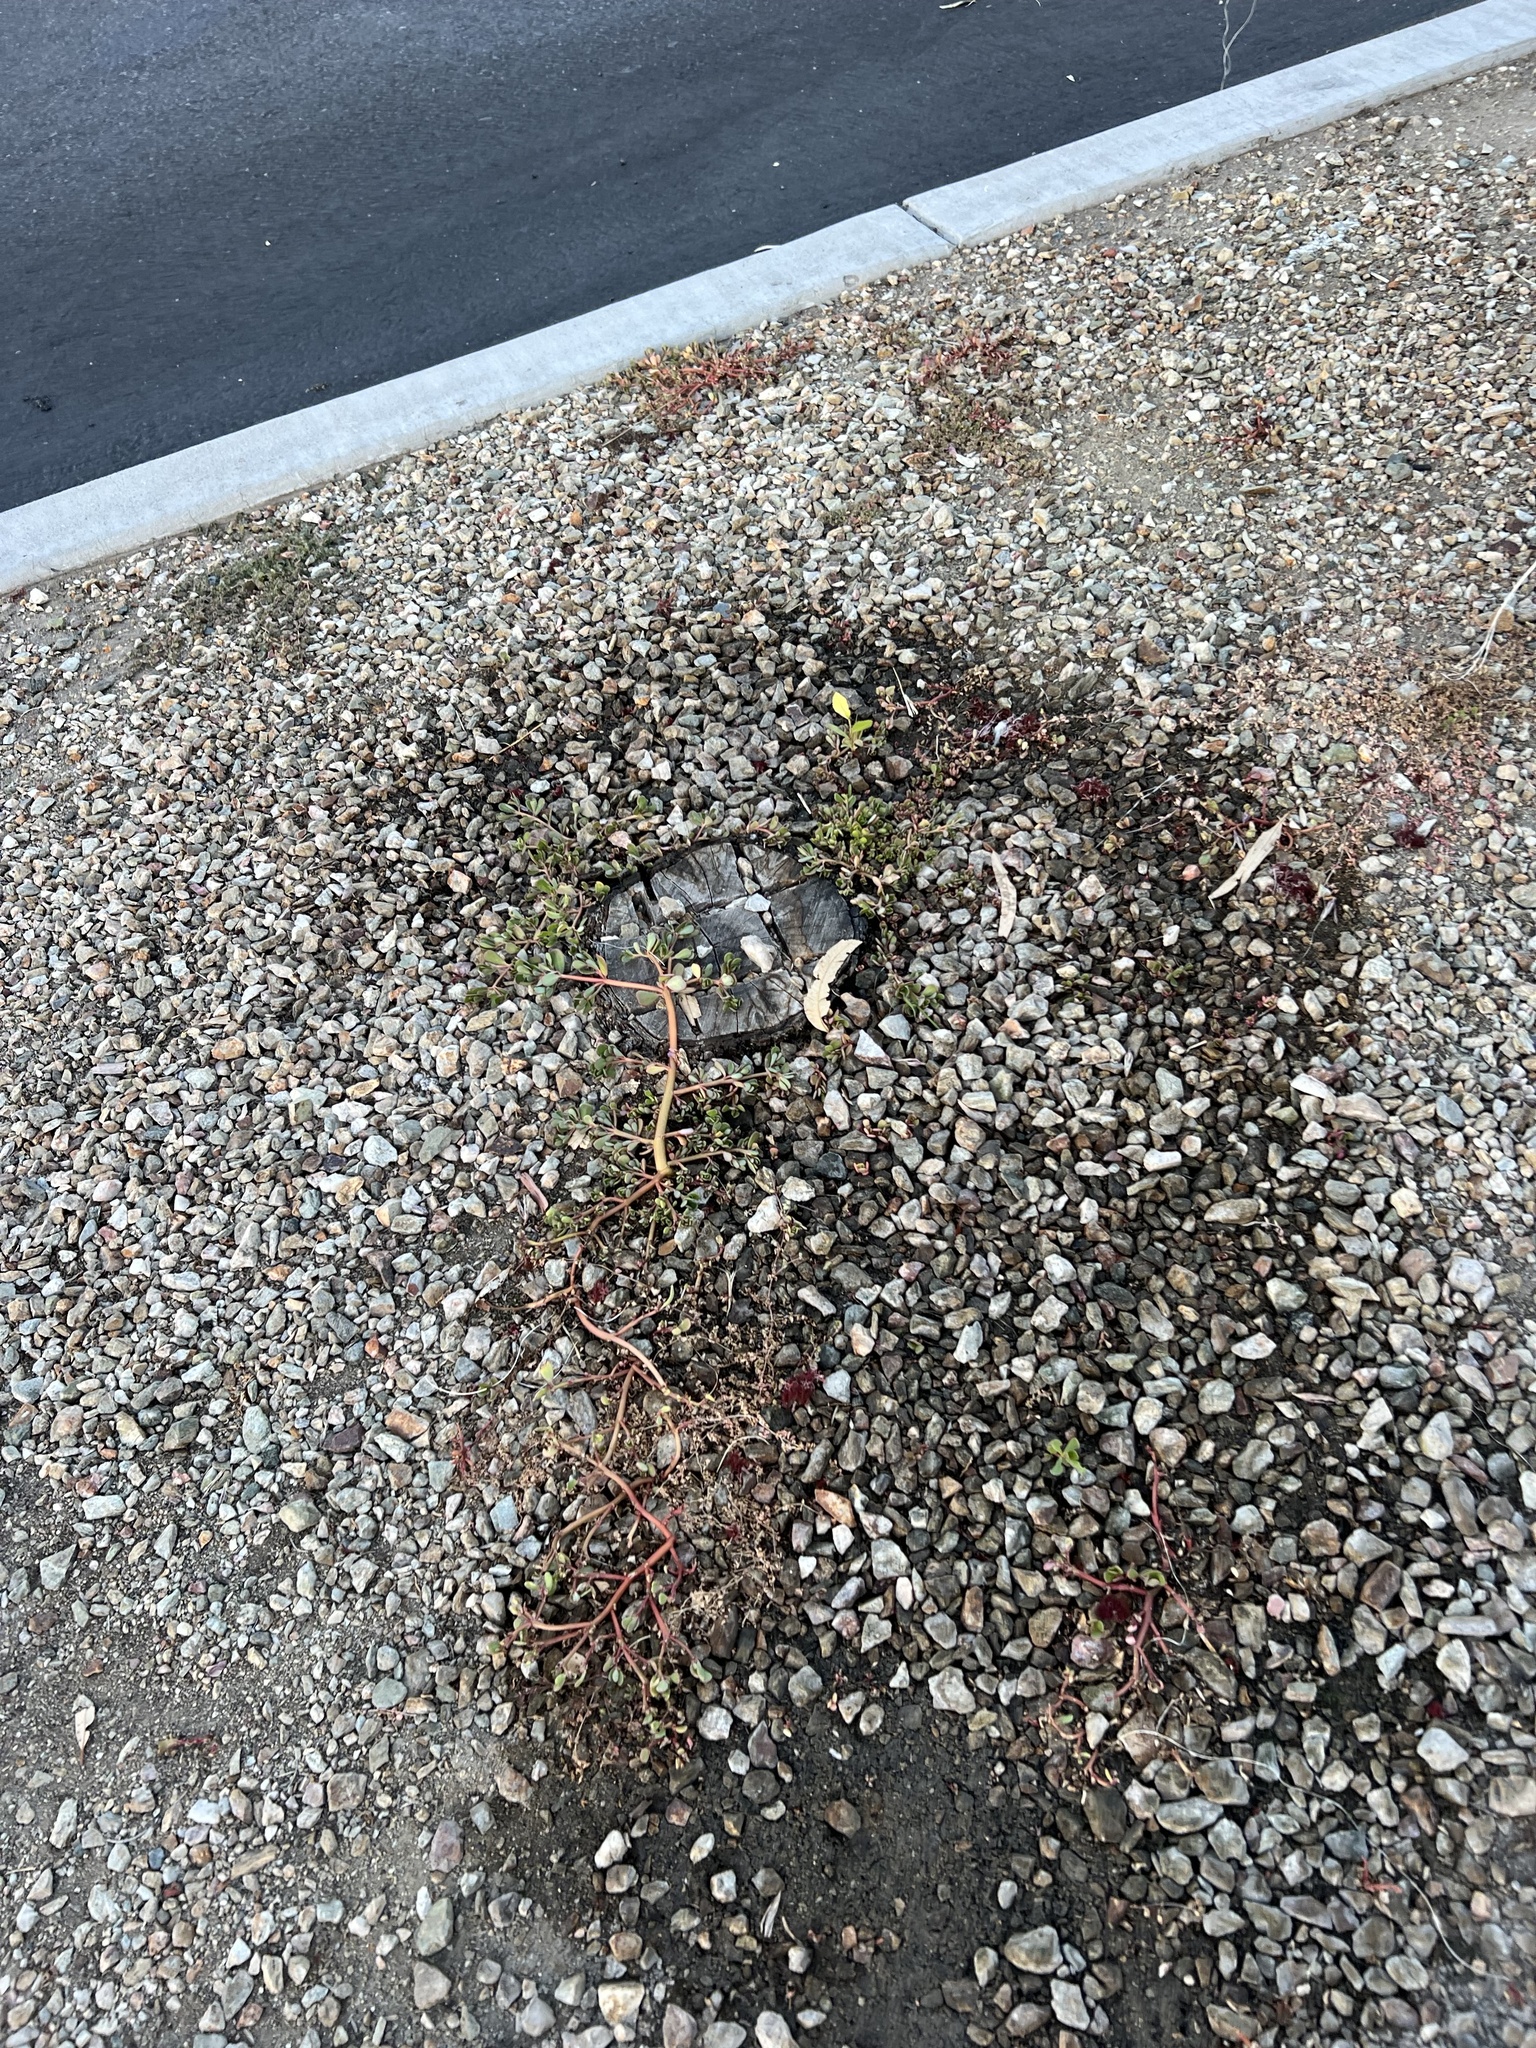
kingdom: Plantae
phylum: Tracheophyta
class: Magnoliopsida
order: Caryophyllales
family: Portulacaceae
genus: Portulaca
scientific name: Portulaca oleracea
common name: Common purslane
